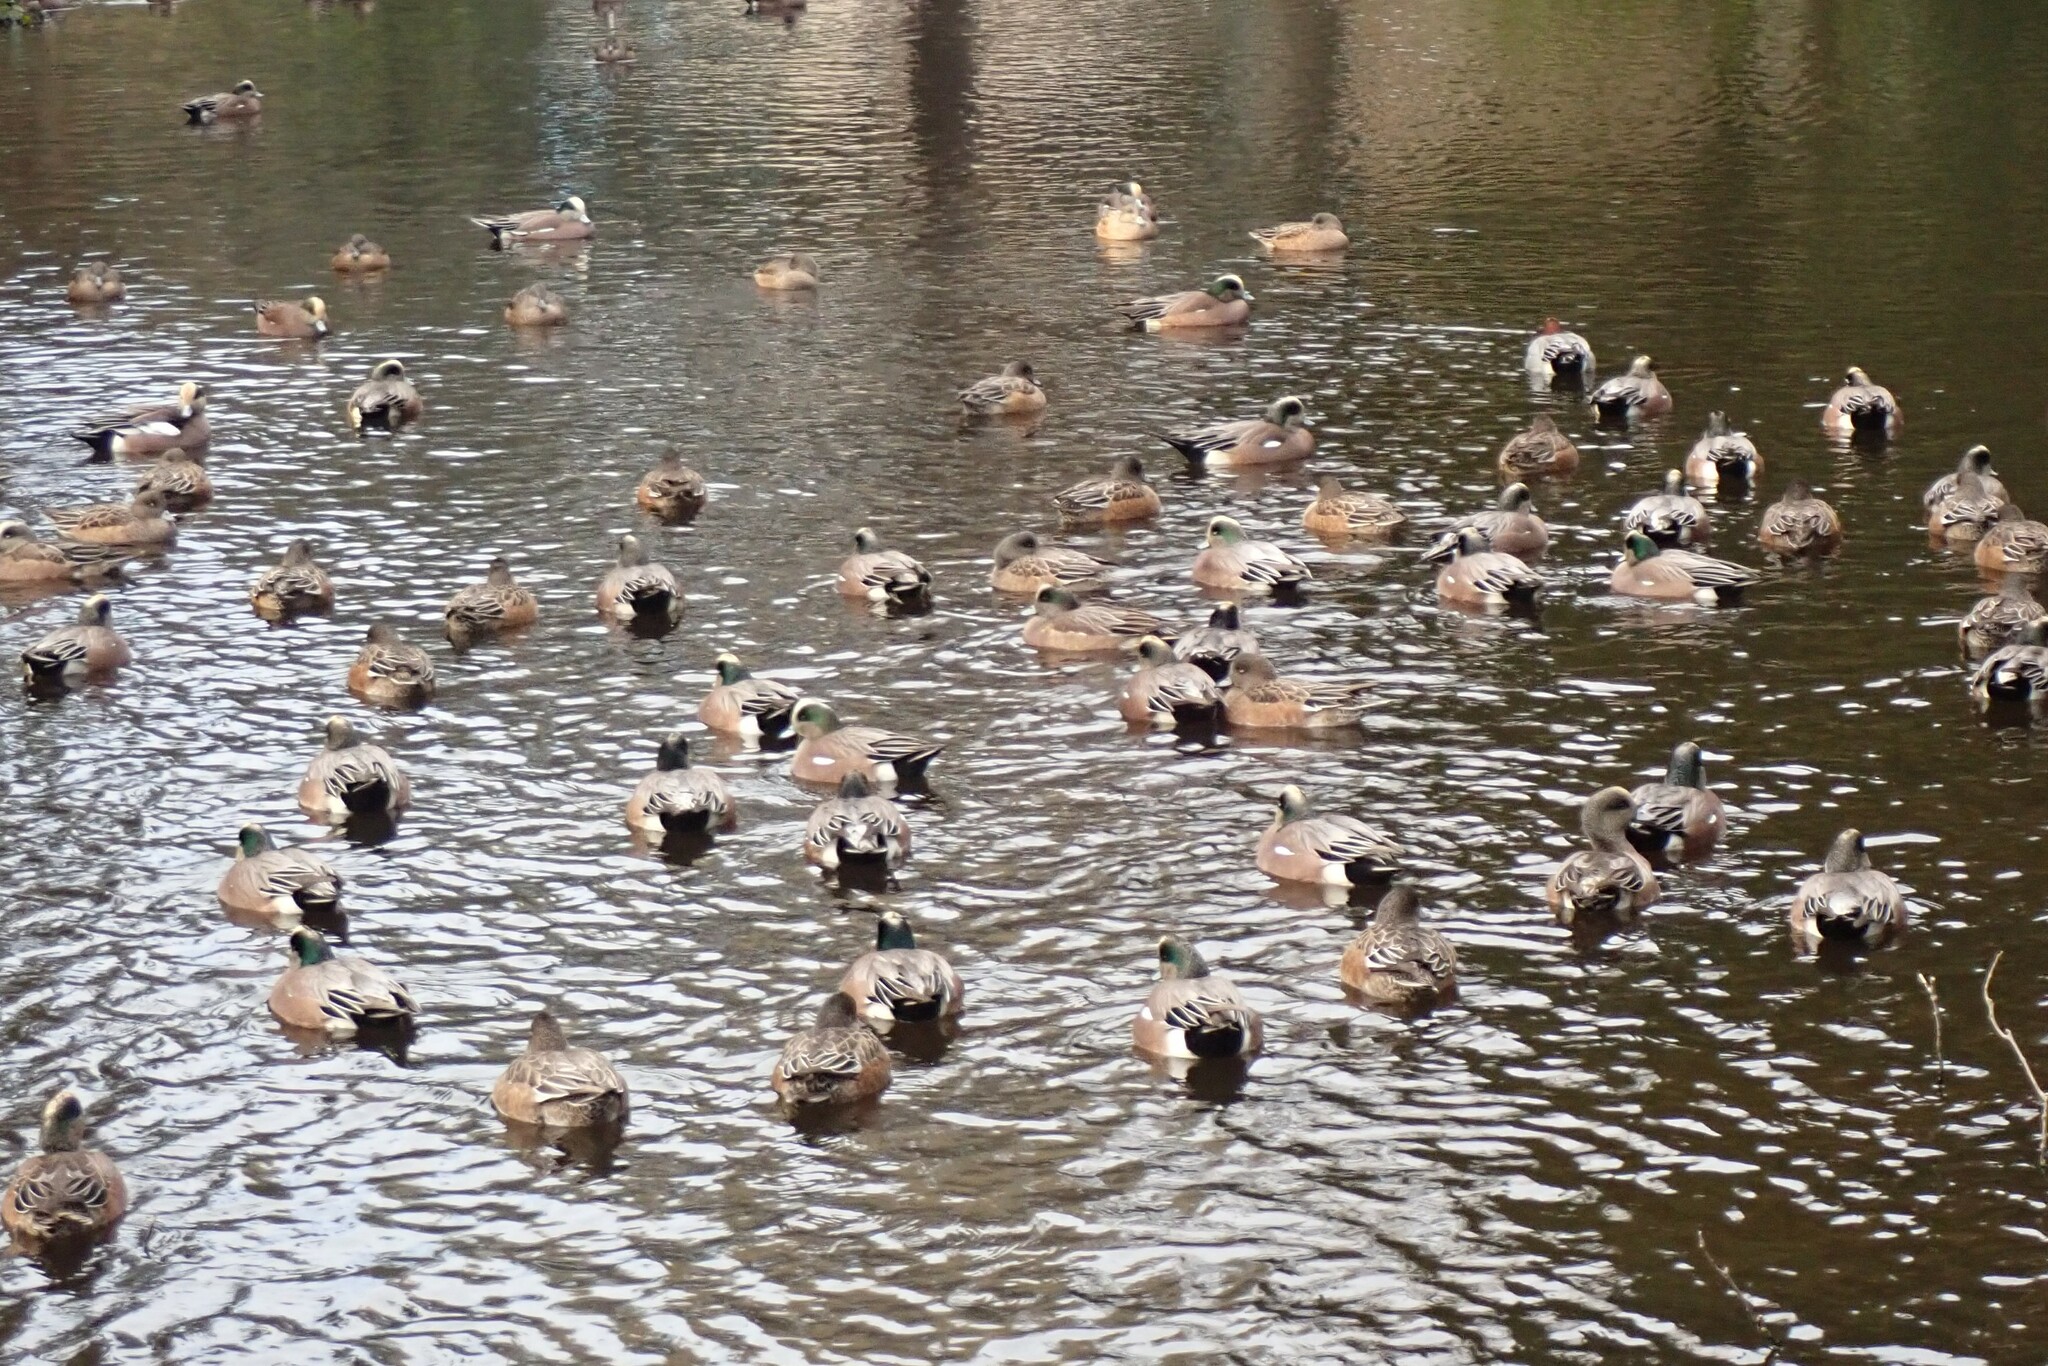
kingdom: Animalia
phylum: Chordata
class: Aves
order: Anseriformes
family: Anatidae
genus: Mareca
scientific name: Mareca americana
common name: American wigeon
